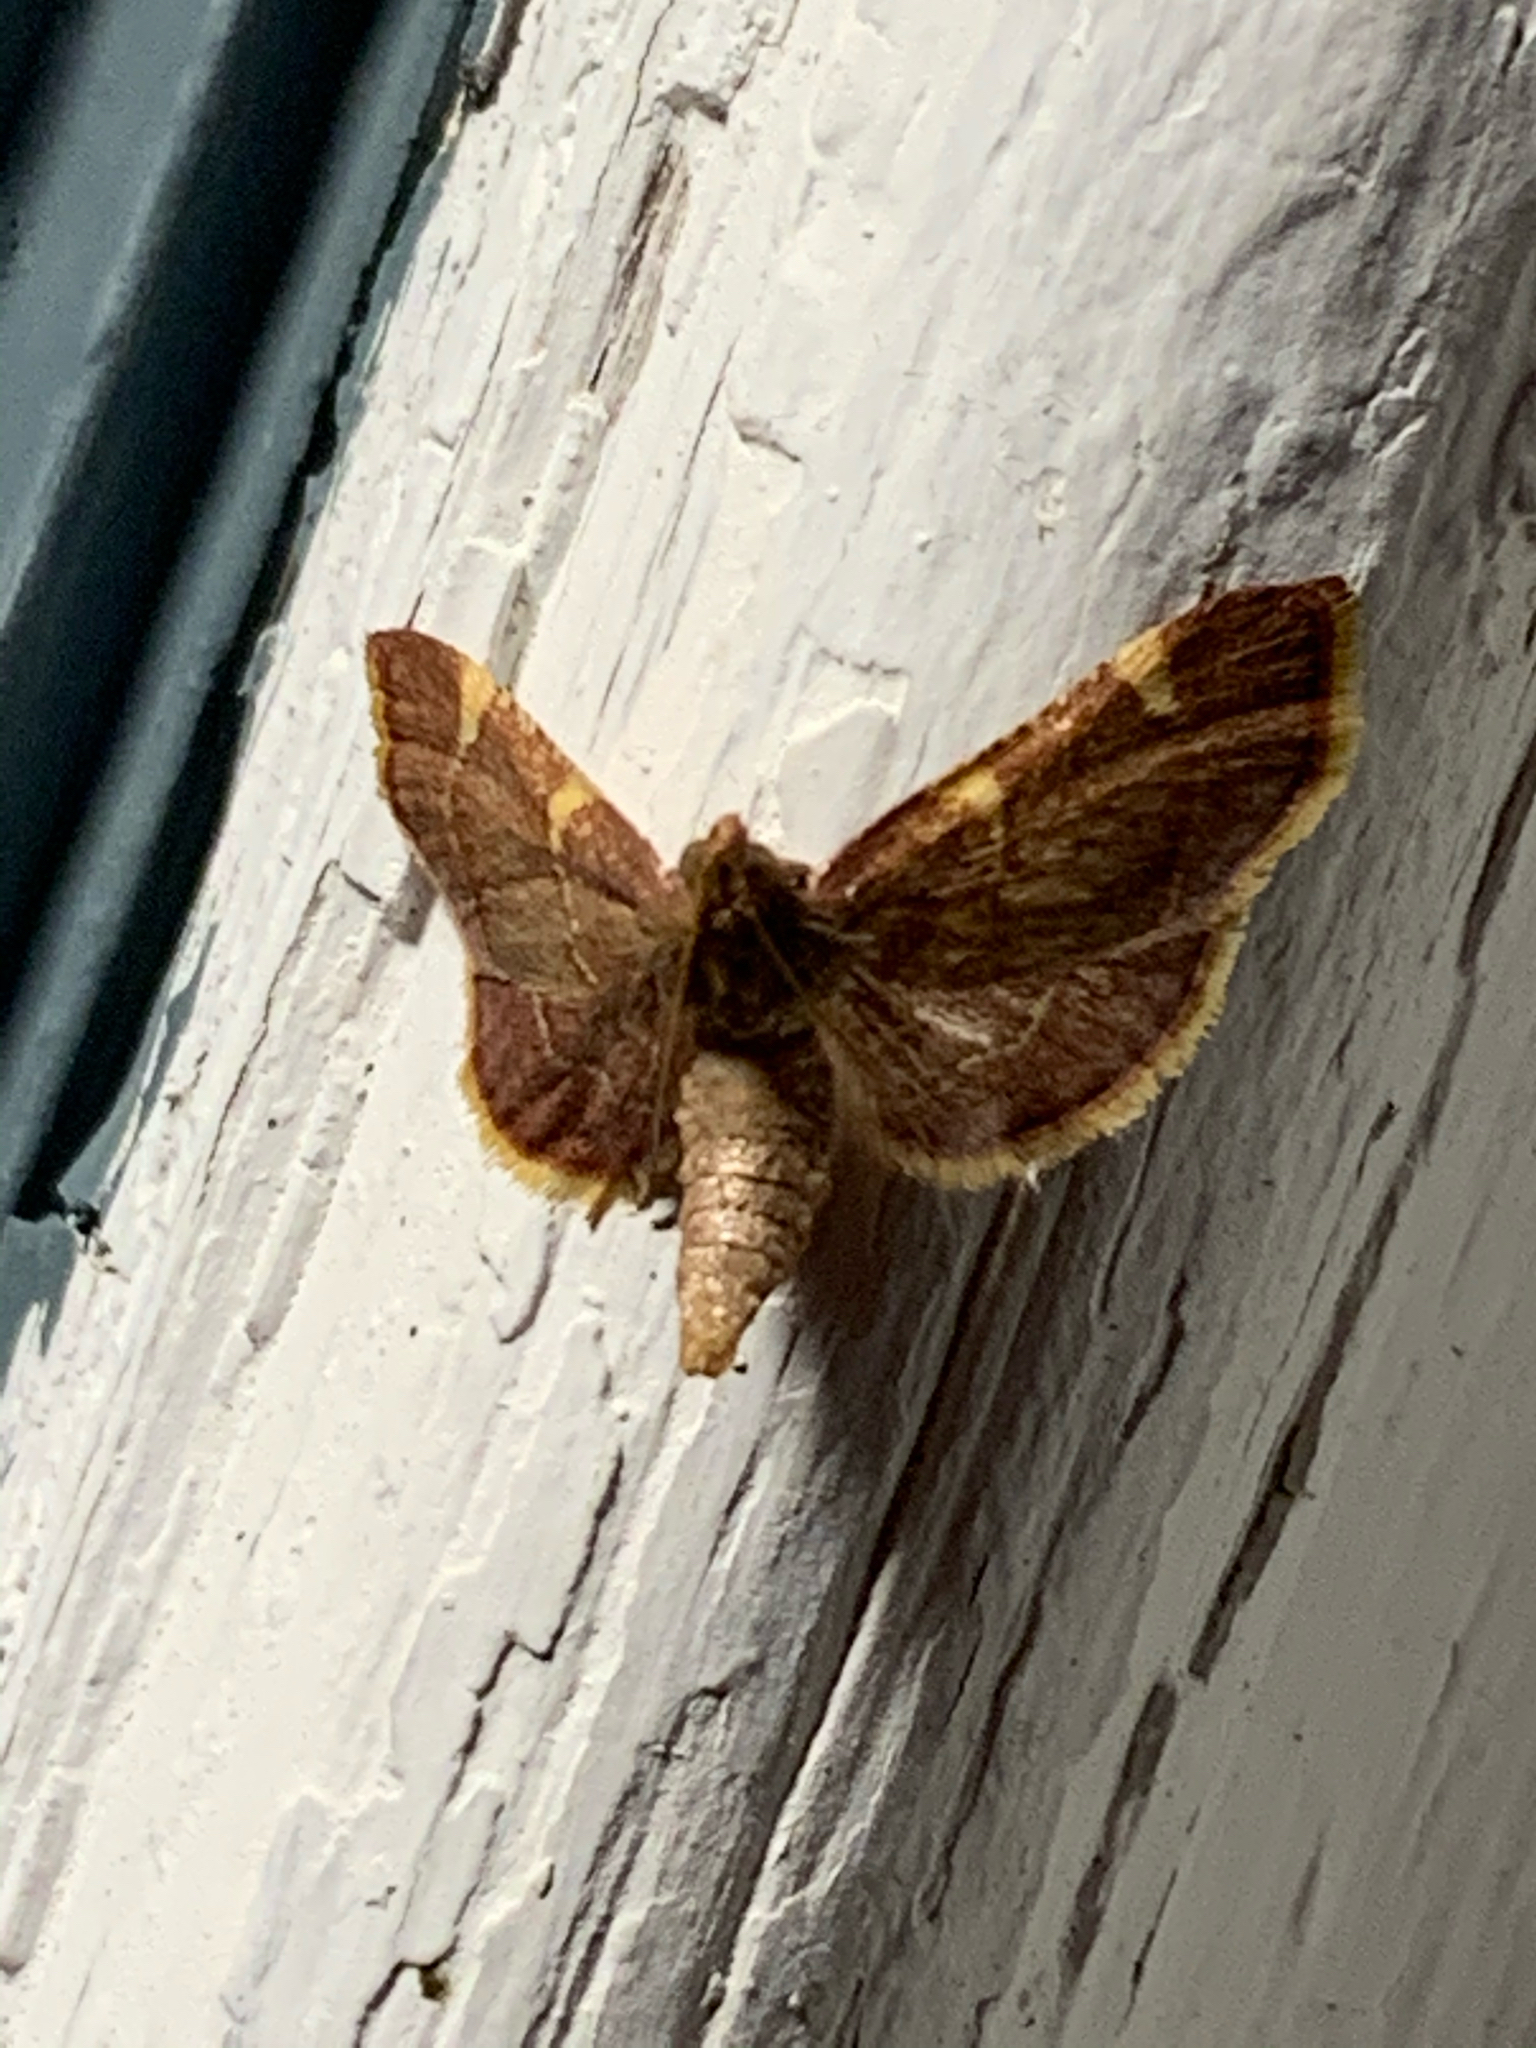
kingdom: Animalia
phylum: Arthropoda
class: Insecta
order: Lepidoptera
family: Pyralidae
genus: Hypsopygia
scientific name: Hypsopygia olinalis
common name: Yellow-fringed dolichomia moth
